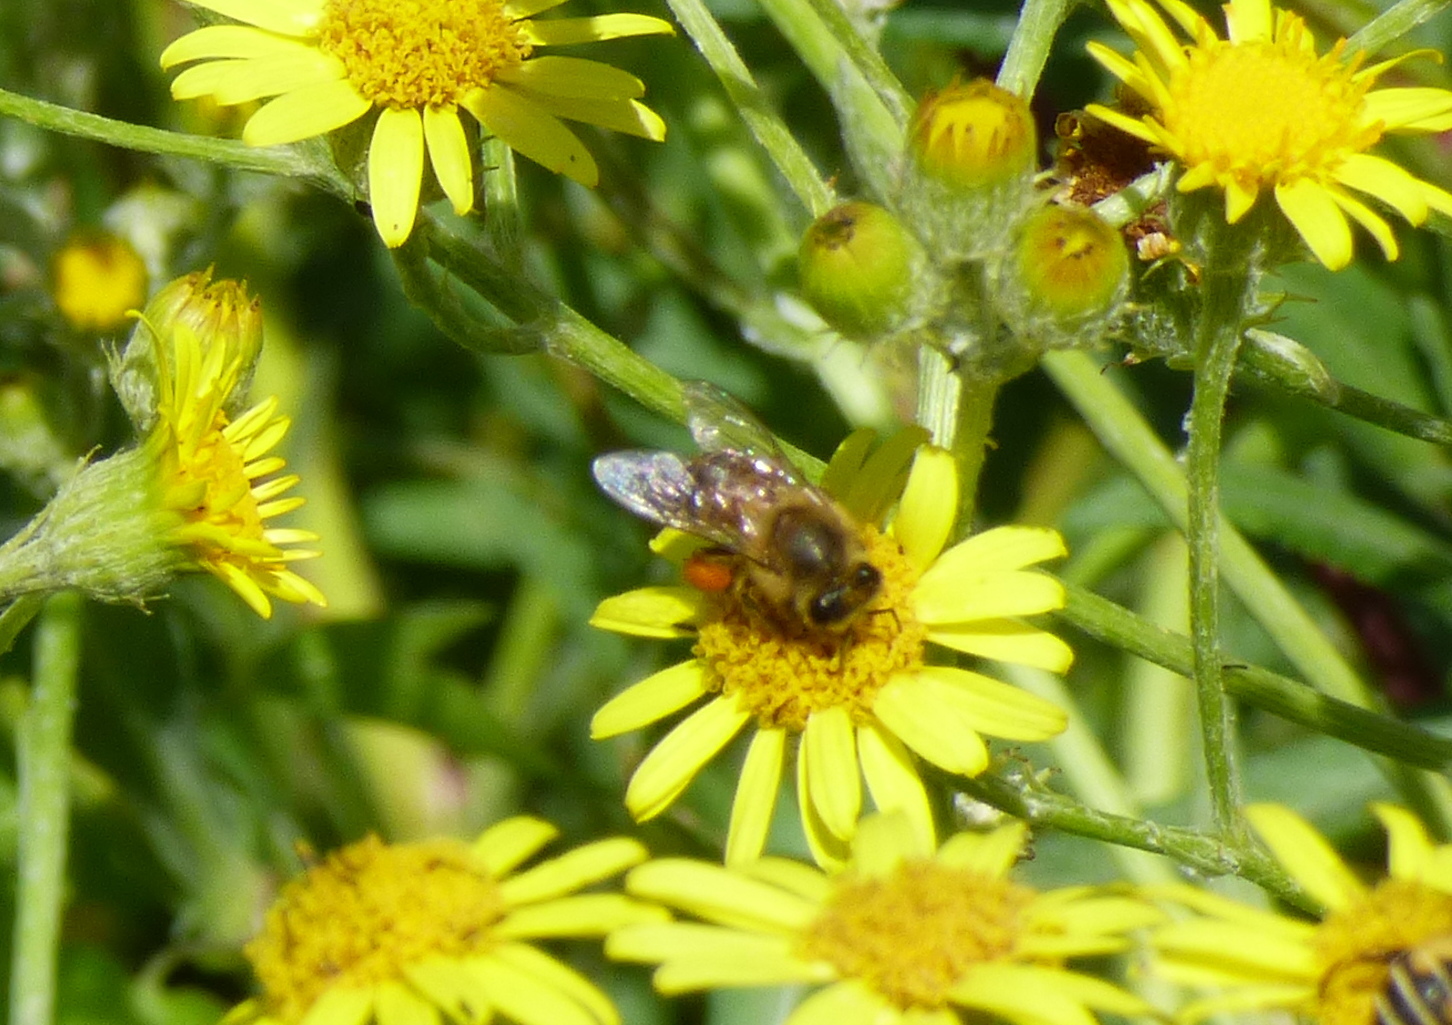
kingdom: Animalia
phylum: Arthropoda
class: Insecta
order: Hymenoptera
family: Apidae
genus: Apis
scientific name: Apis mellifera
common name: Honey bee
